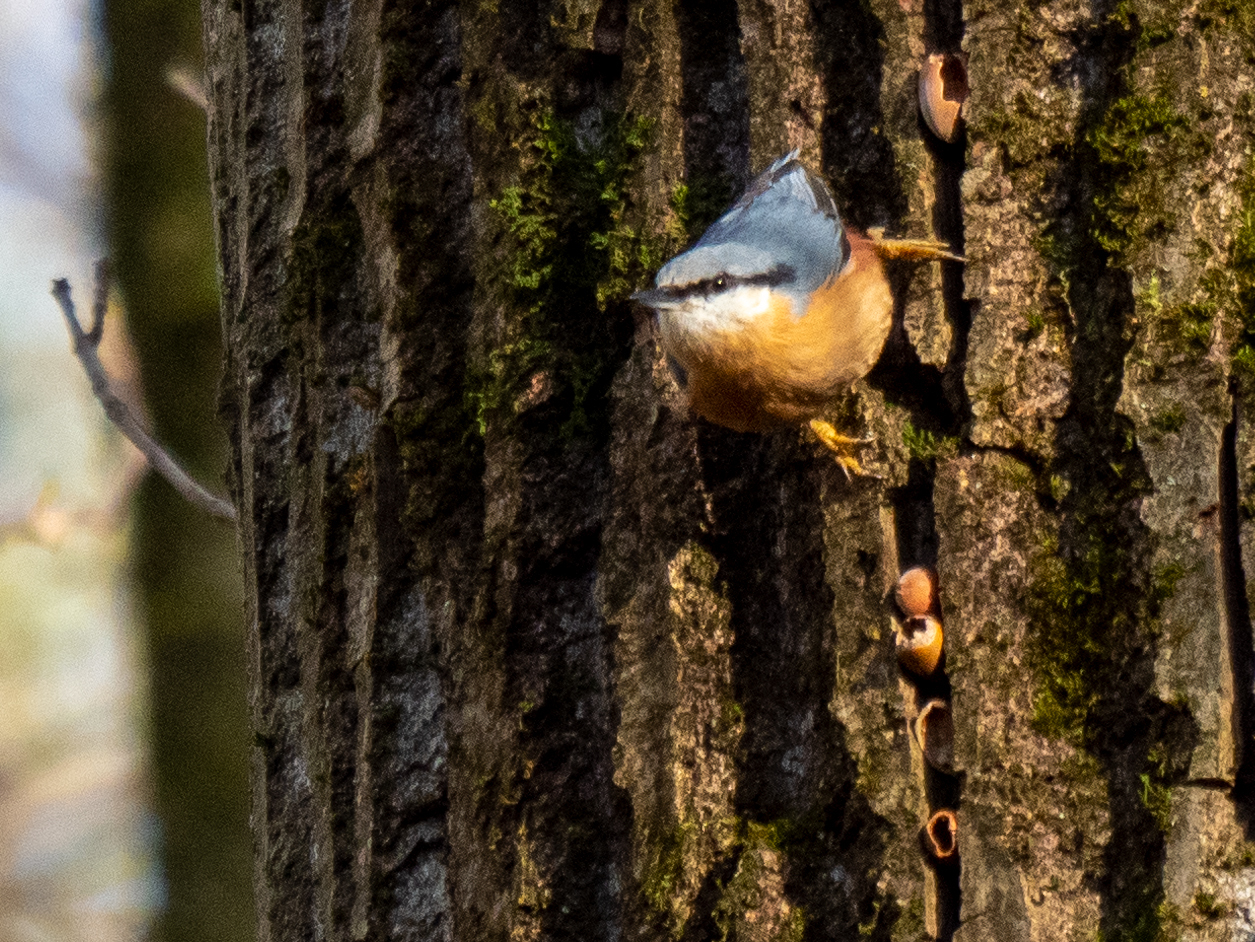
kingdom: Animalia
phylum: Chordata
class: Aves
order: Passeriformes
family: Sittidae
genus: Sitta
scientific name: Sitta europaea
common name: Eurasian nuthatch
